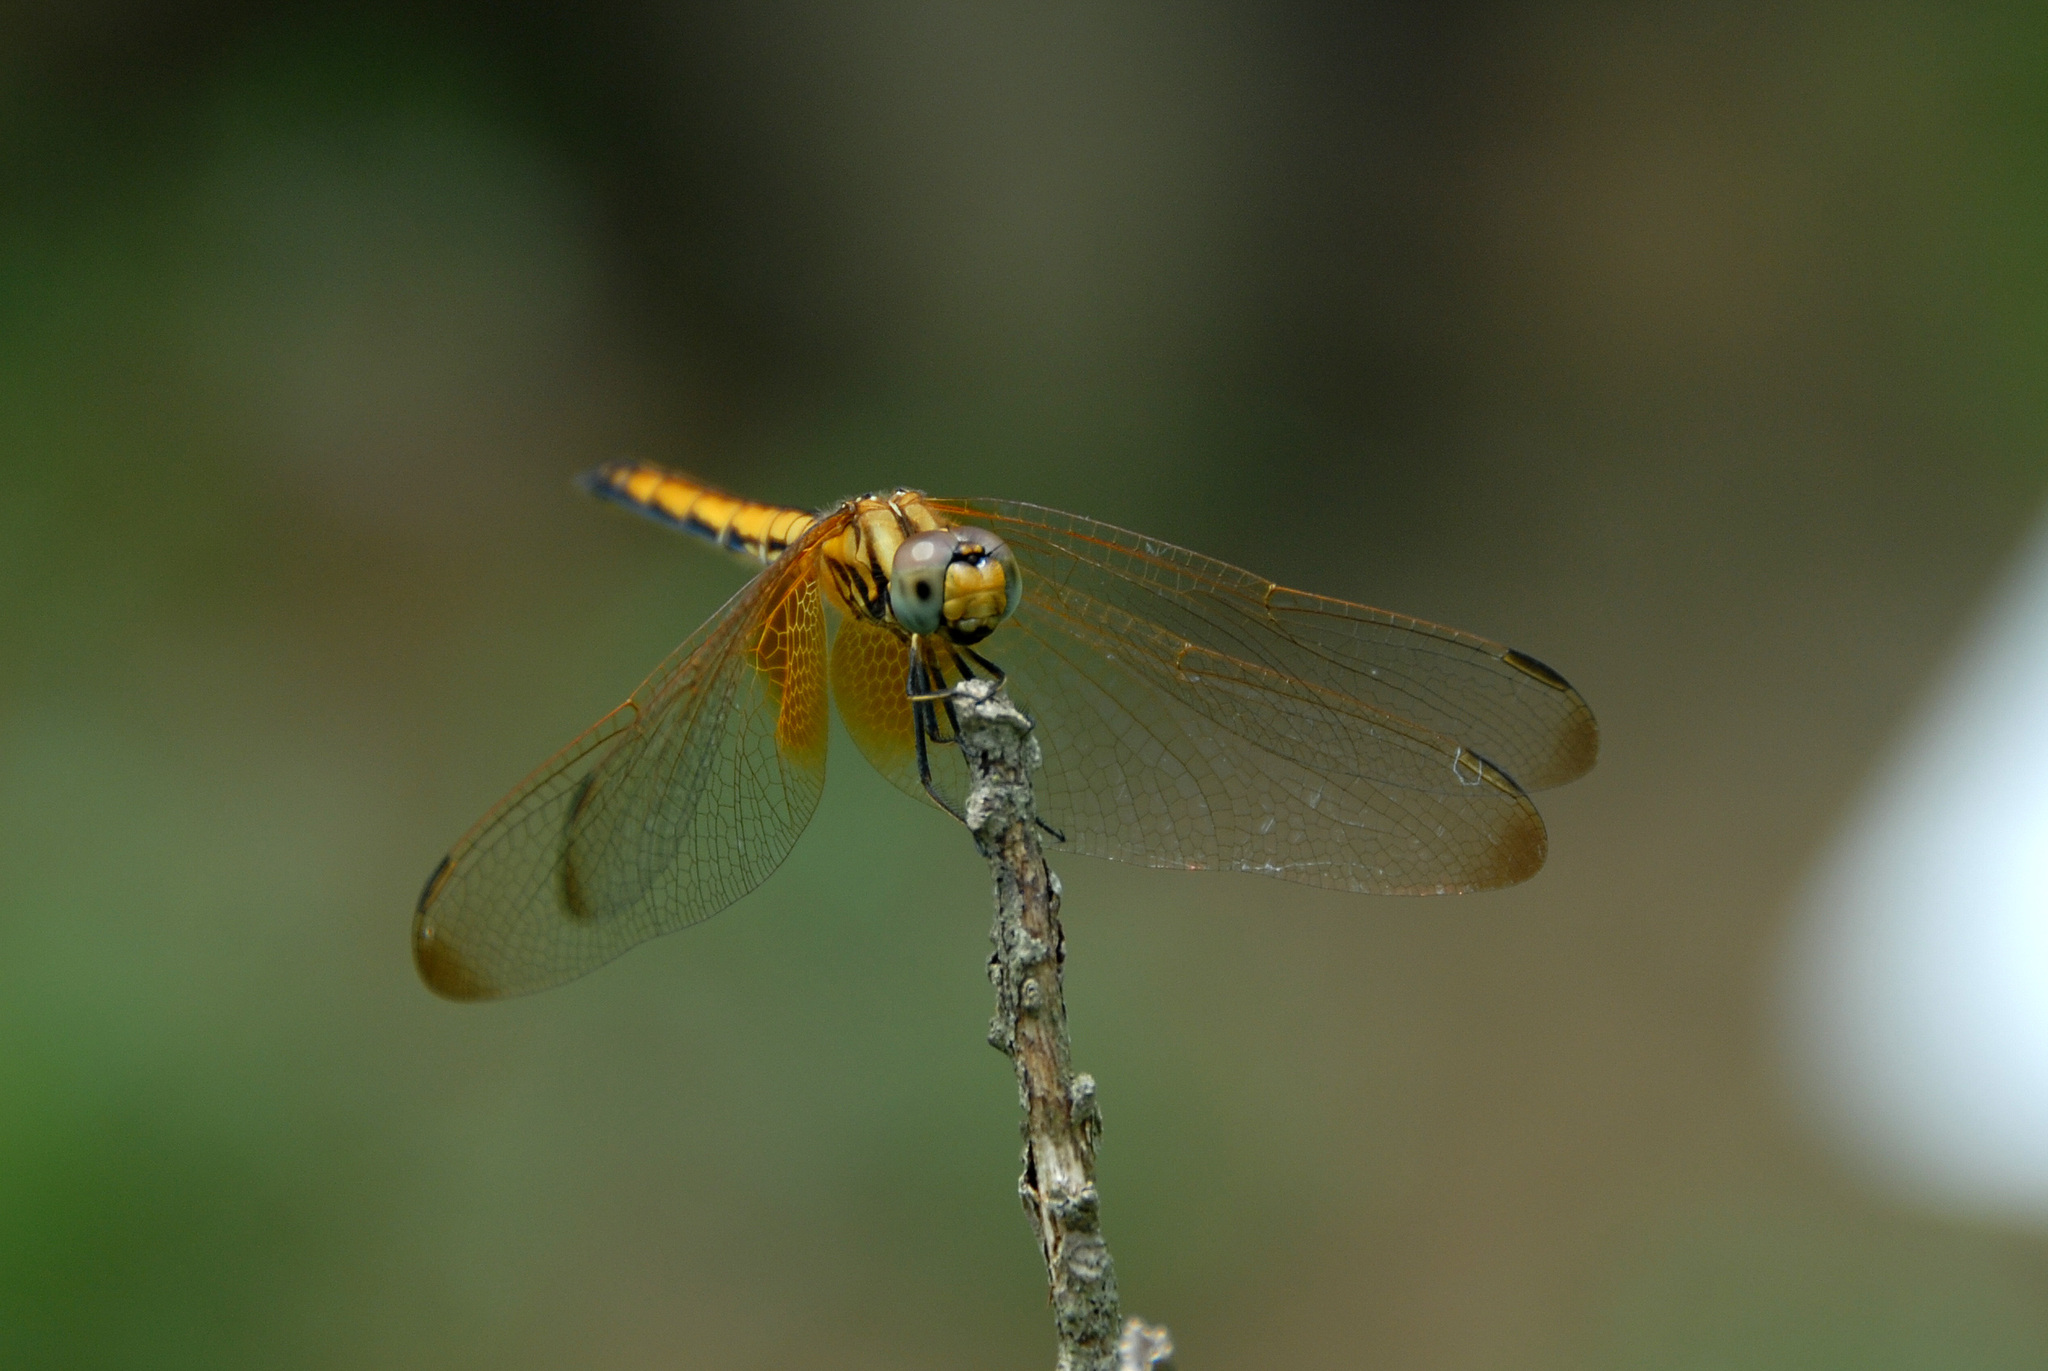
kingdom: Animalia
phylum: Arthropoda
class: Insecta
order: Odonata
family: Libellulidae
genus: Trithemis
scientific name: Trithemis aurora
